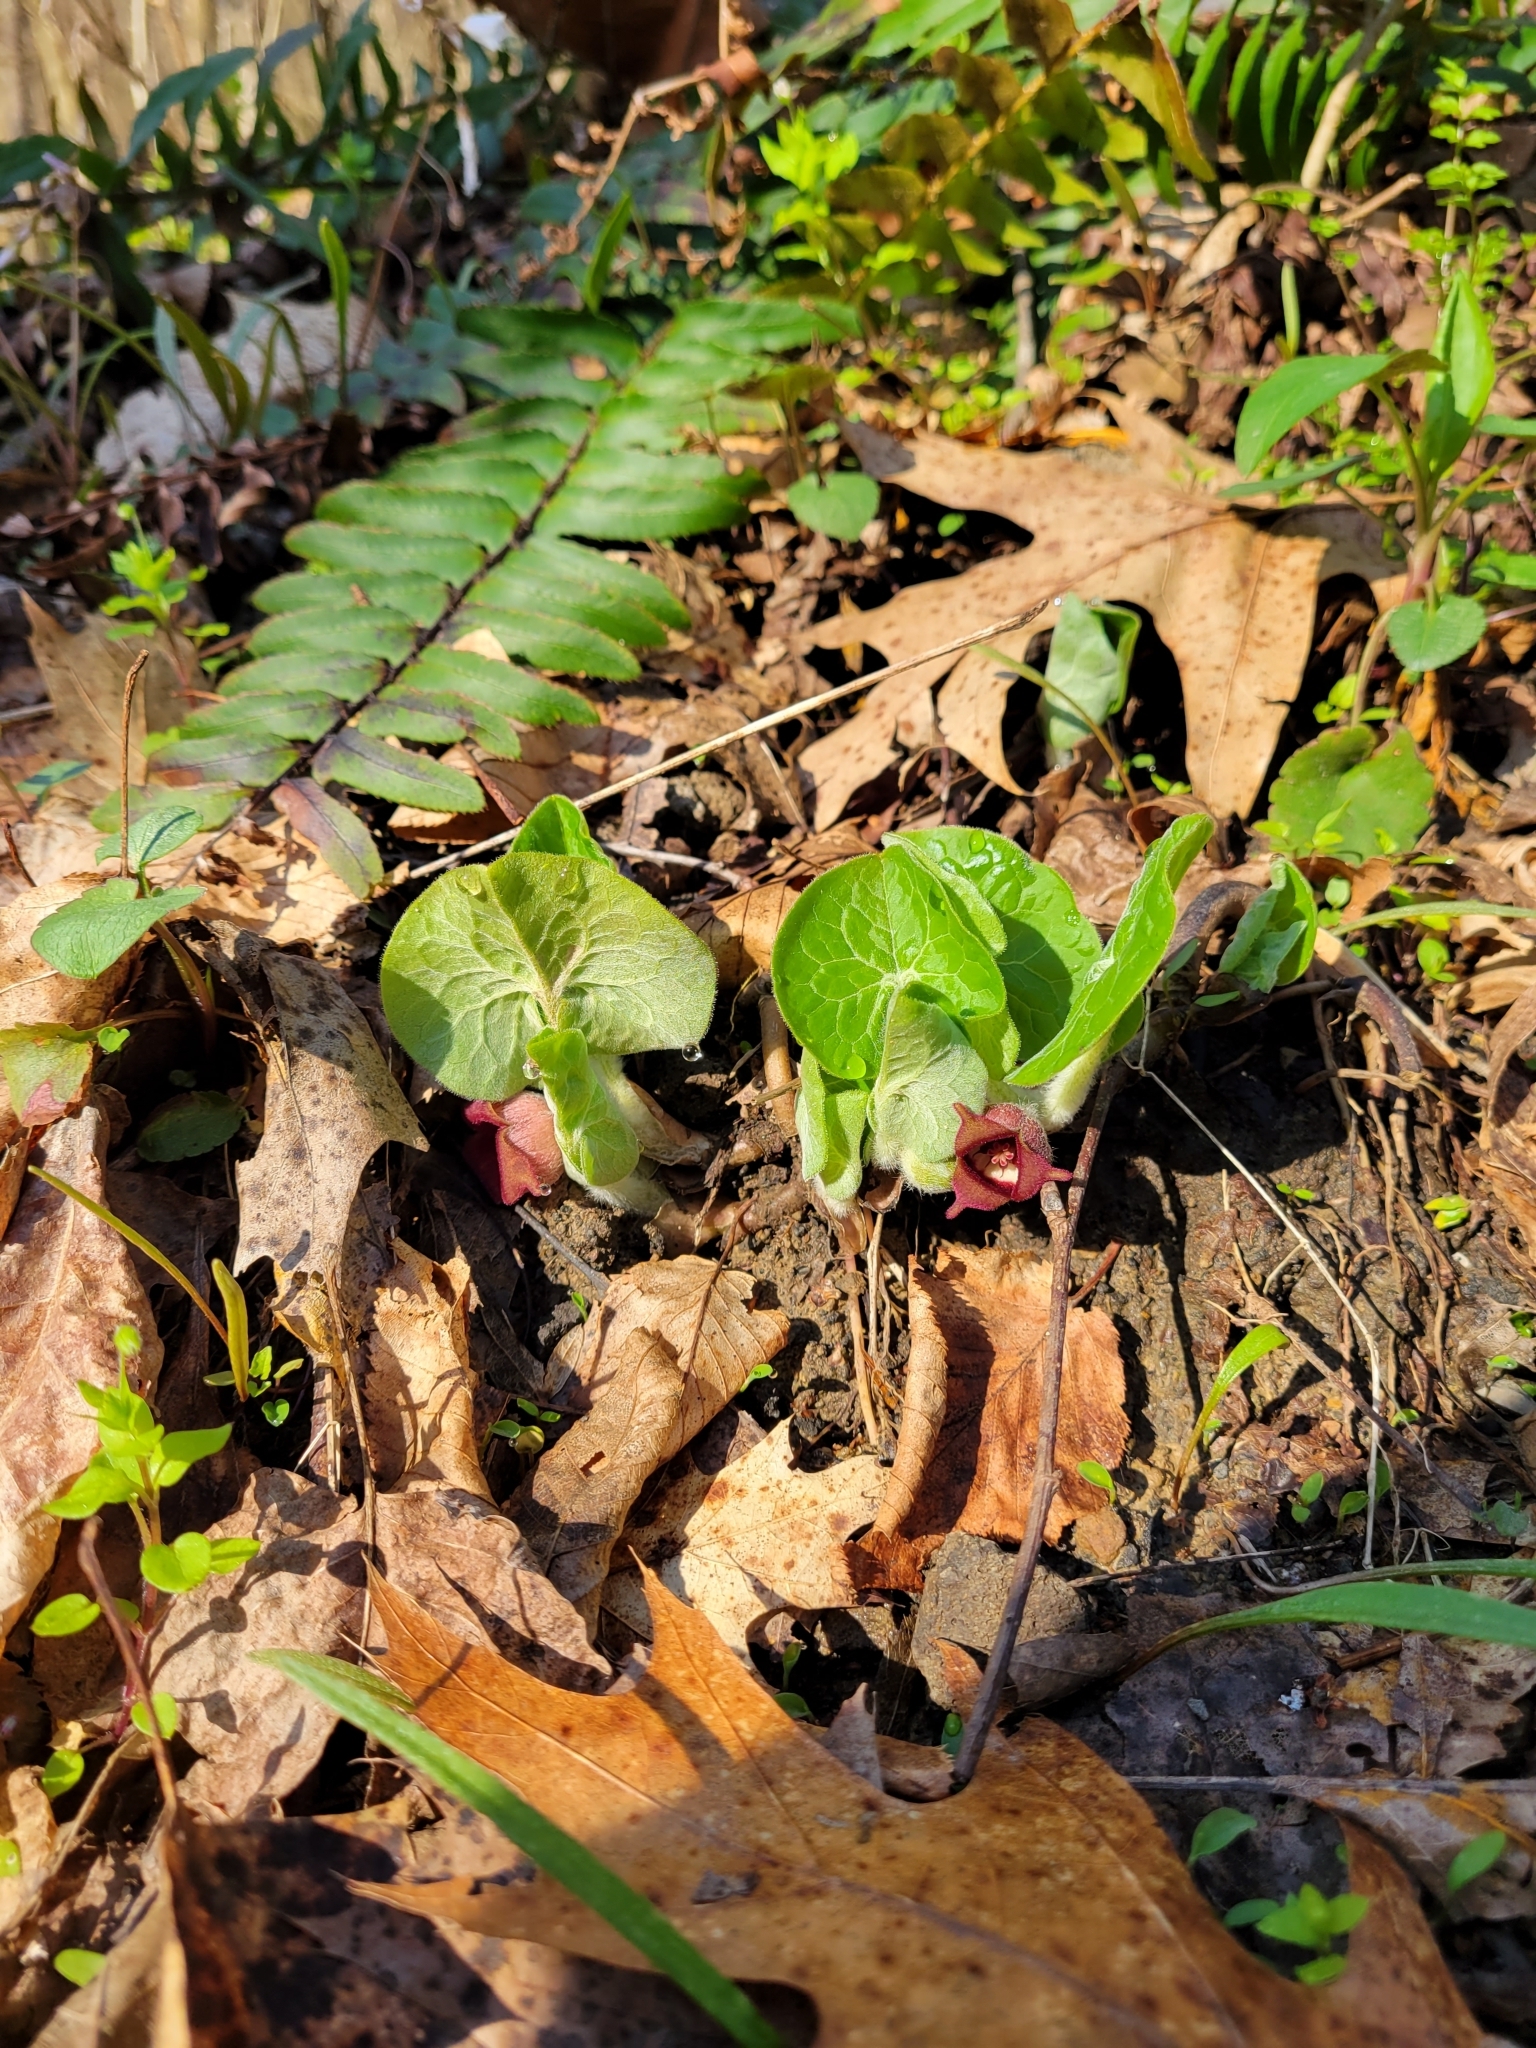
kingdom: Plantae
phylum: Tracheophyta
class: Magnoliopsida
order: Piperales
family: Aristolochiaceae
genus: Asarum
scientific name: Asarum canadense
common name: Wild ginger
